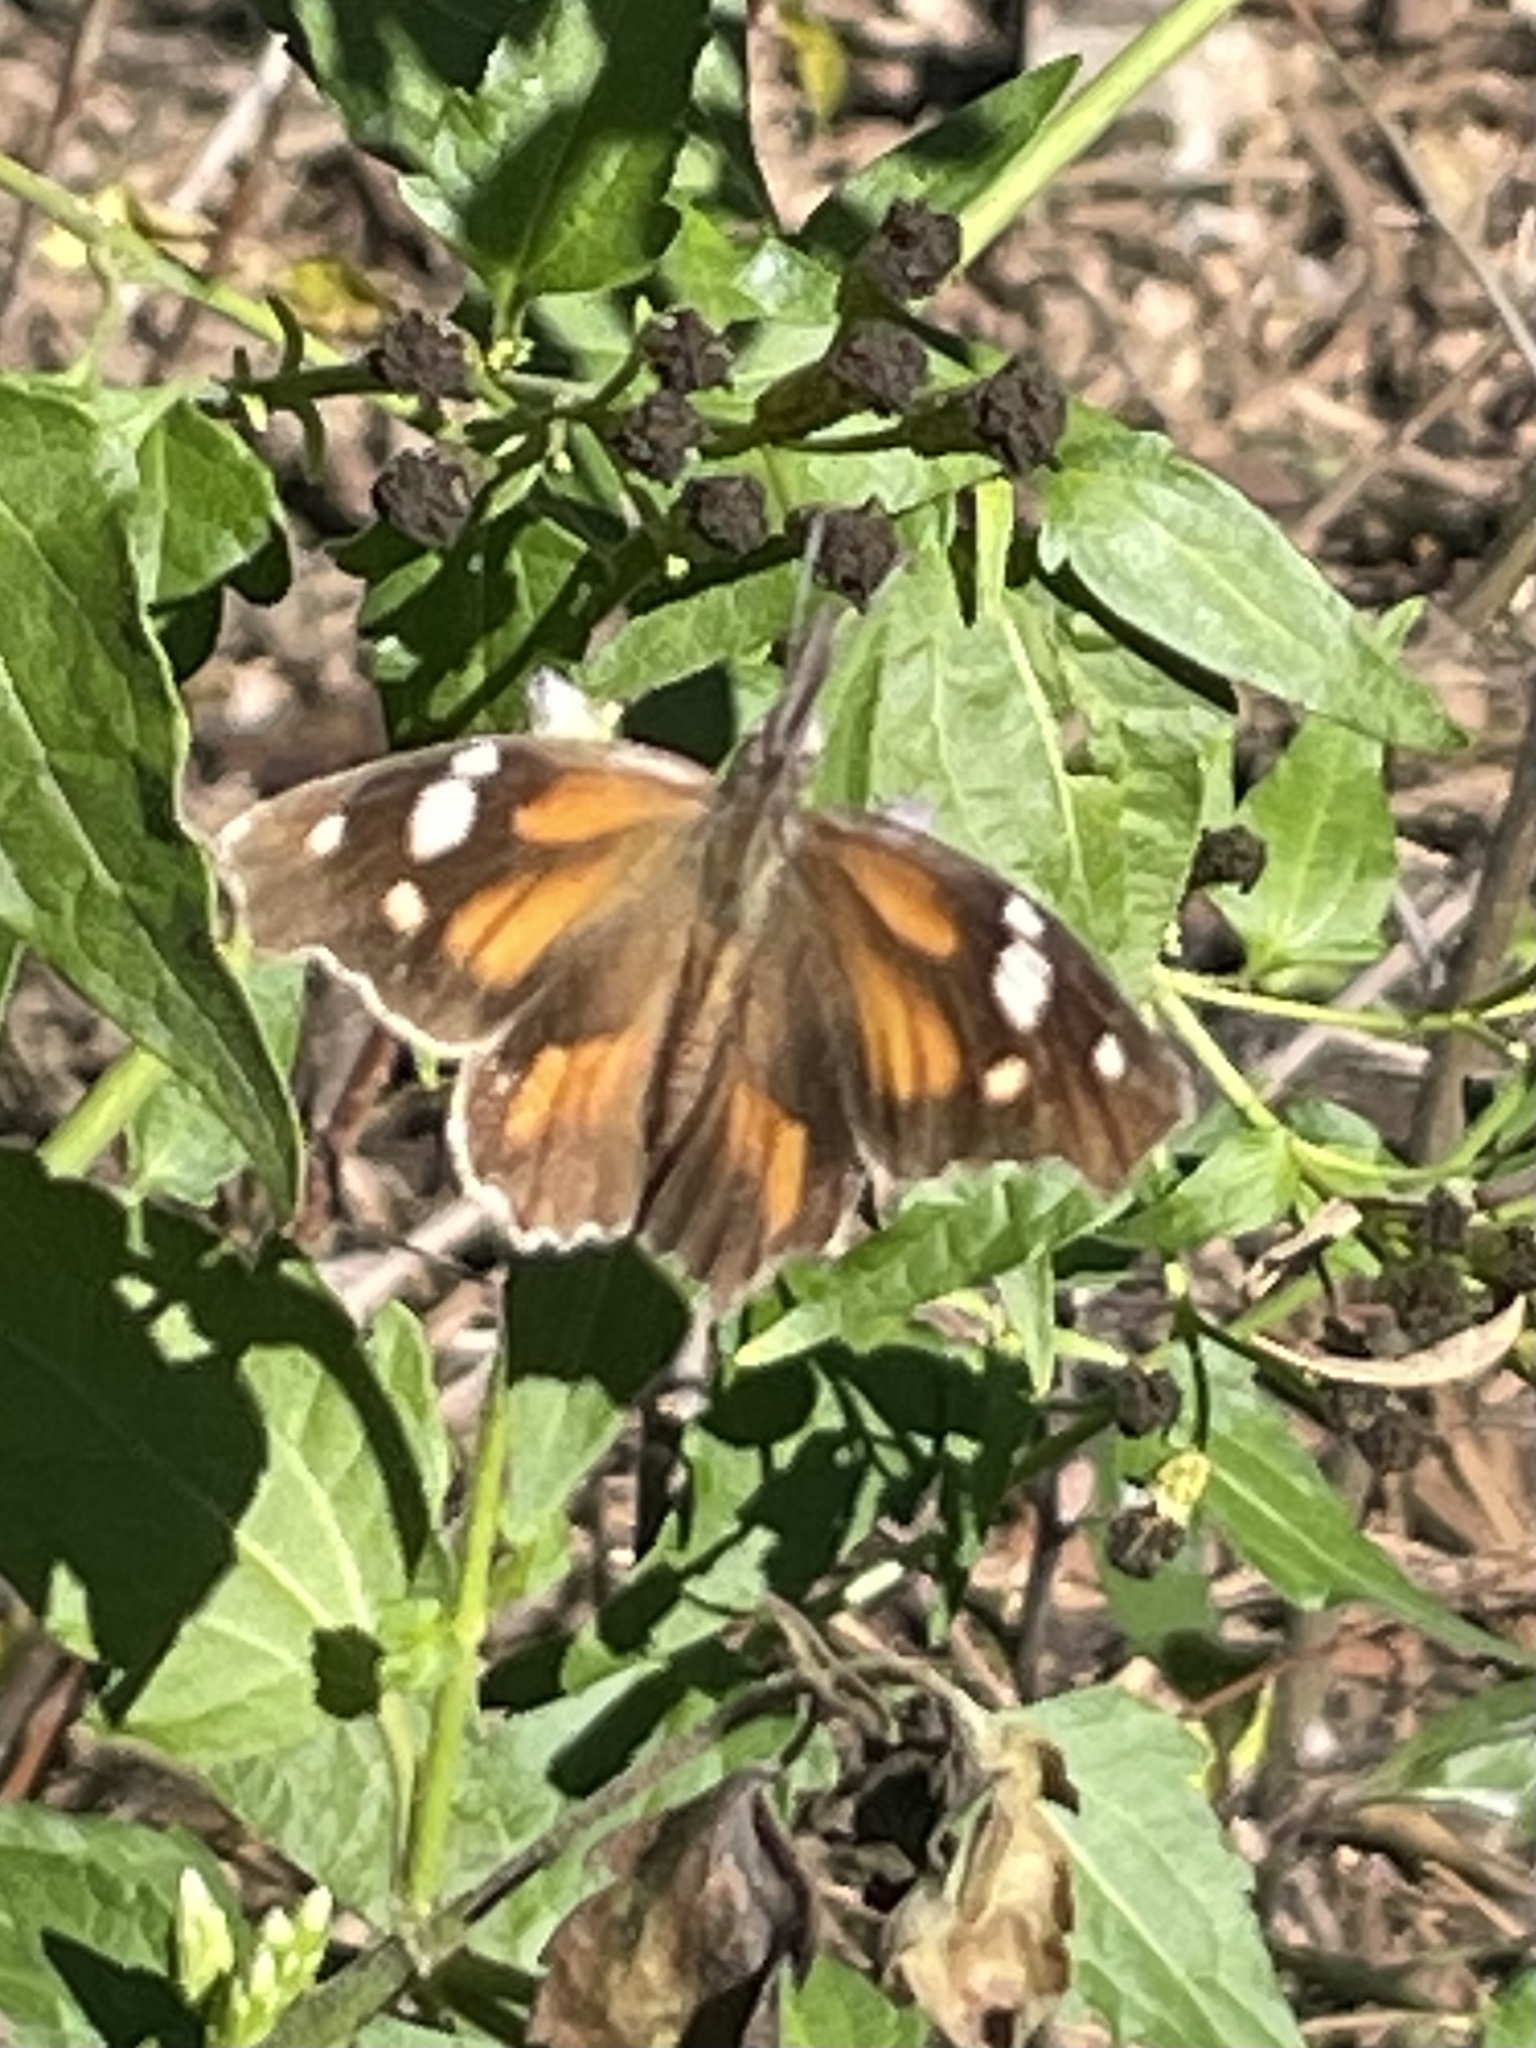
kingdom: Animalia
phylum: Arthropoda
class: Insecta
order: Lepidoptera
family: Nymphalidae
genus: Libytheana
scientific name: Libytheana carinenta
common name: American snout
